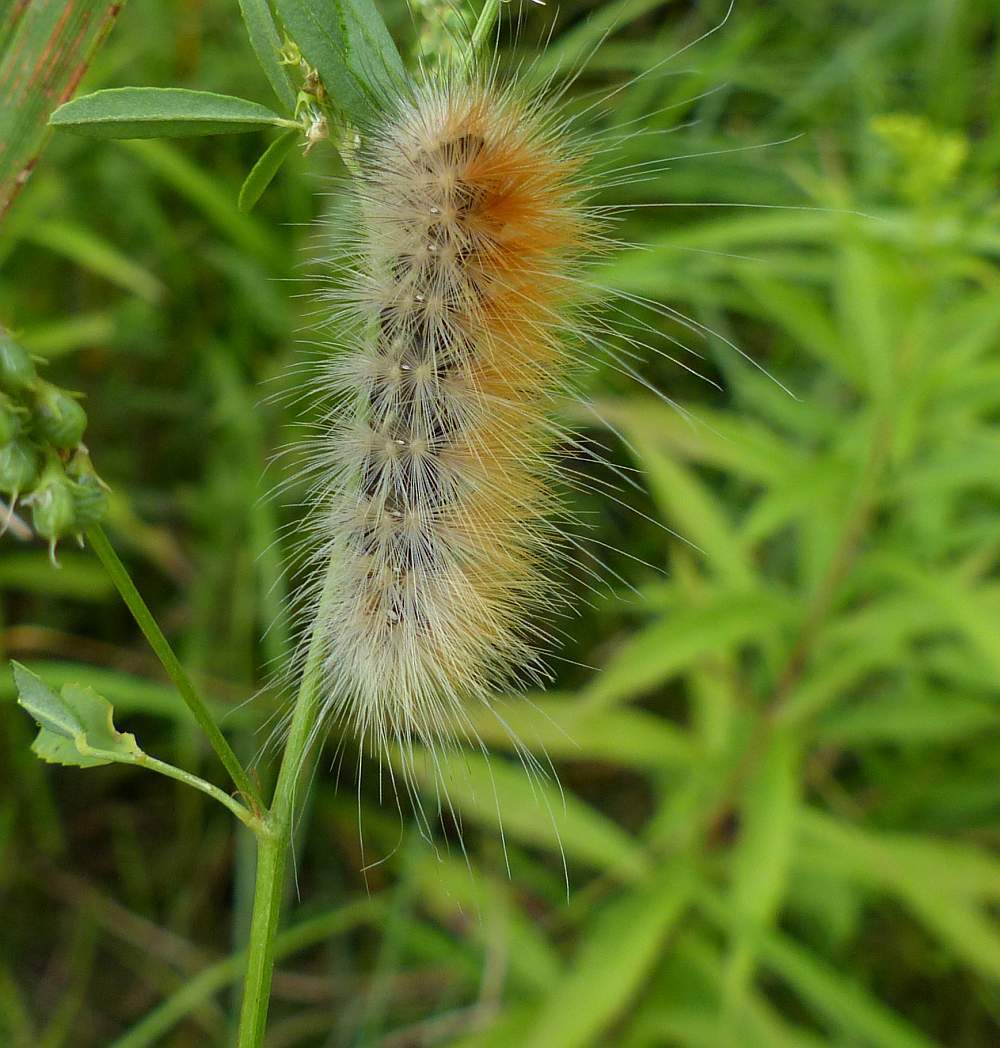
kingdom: Animalia
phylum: Arthropoda
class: Insecta
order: Lepidoptera
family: Erebidae
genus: Spilosoma
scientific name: Spilosoma virginica
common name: Virginia tiger moth
